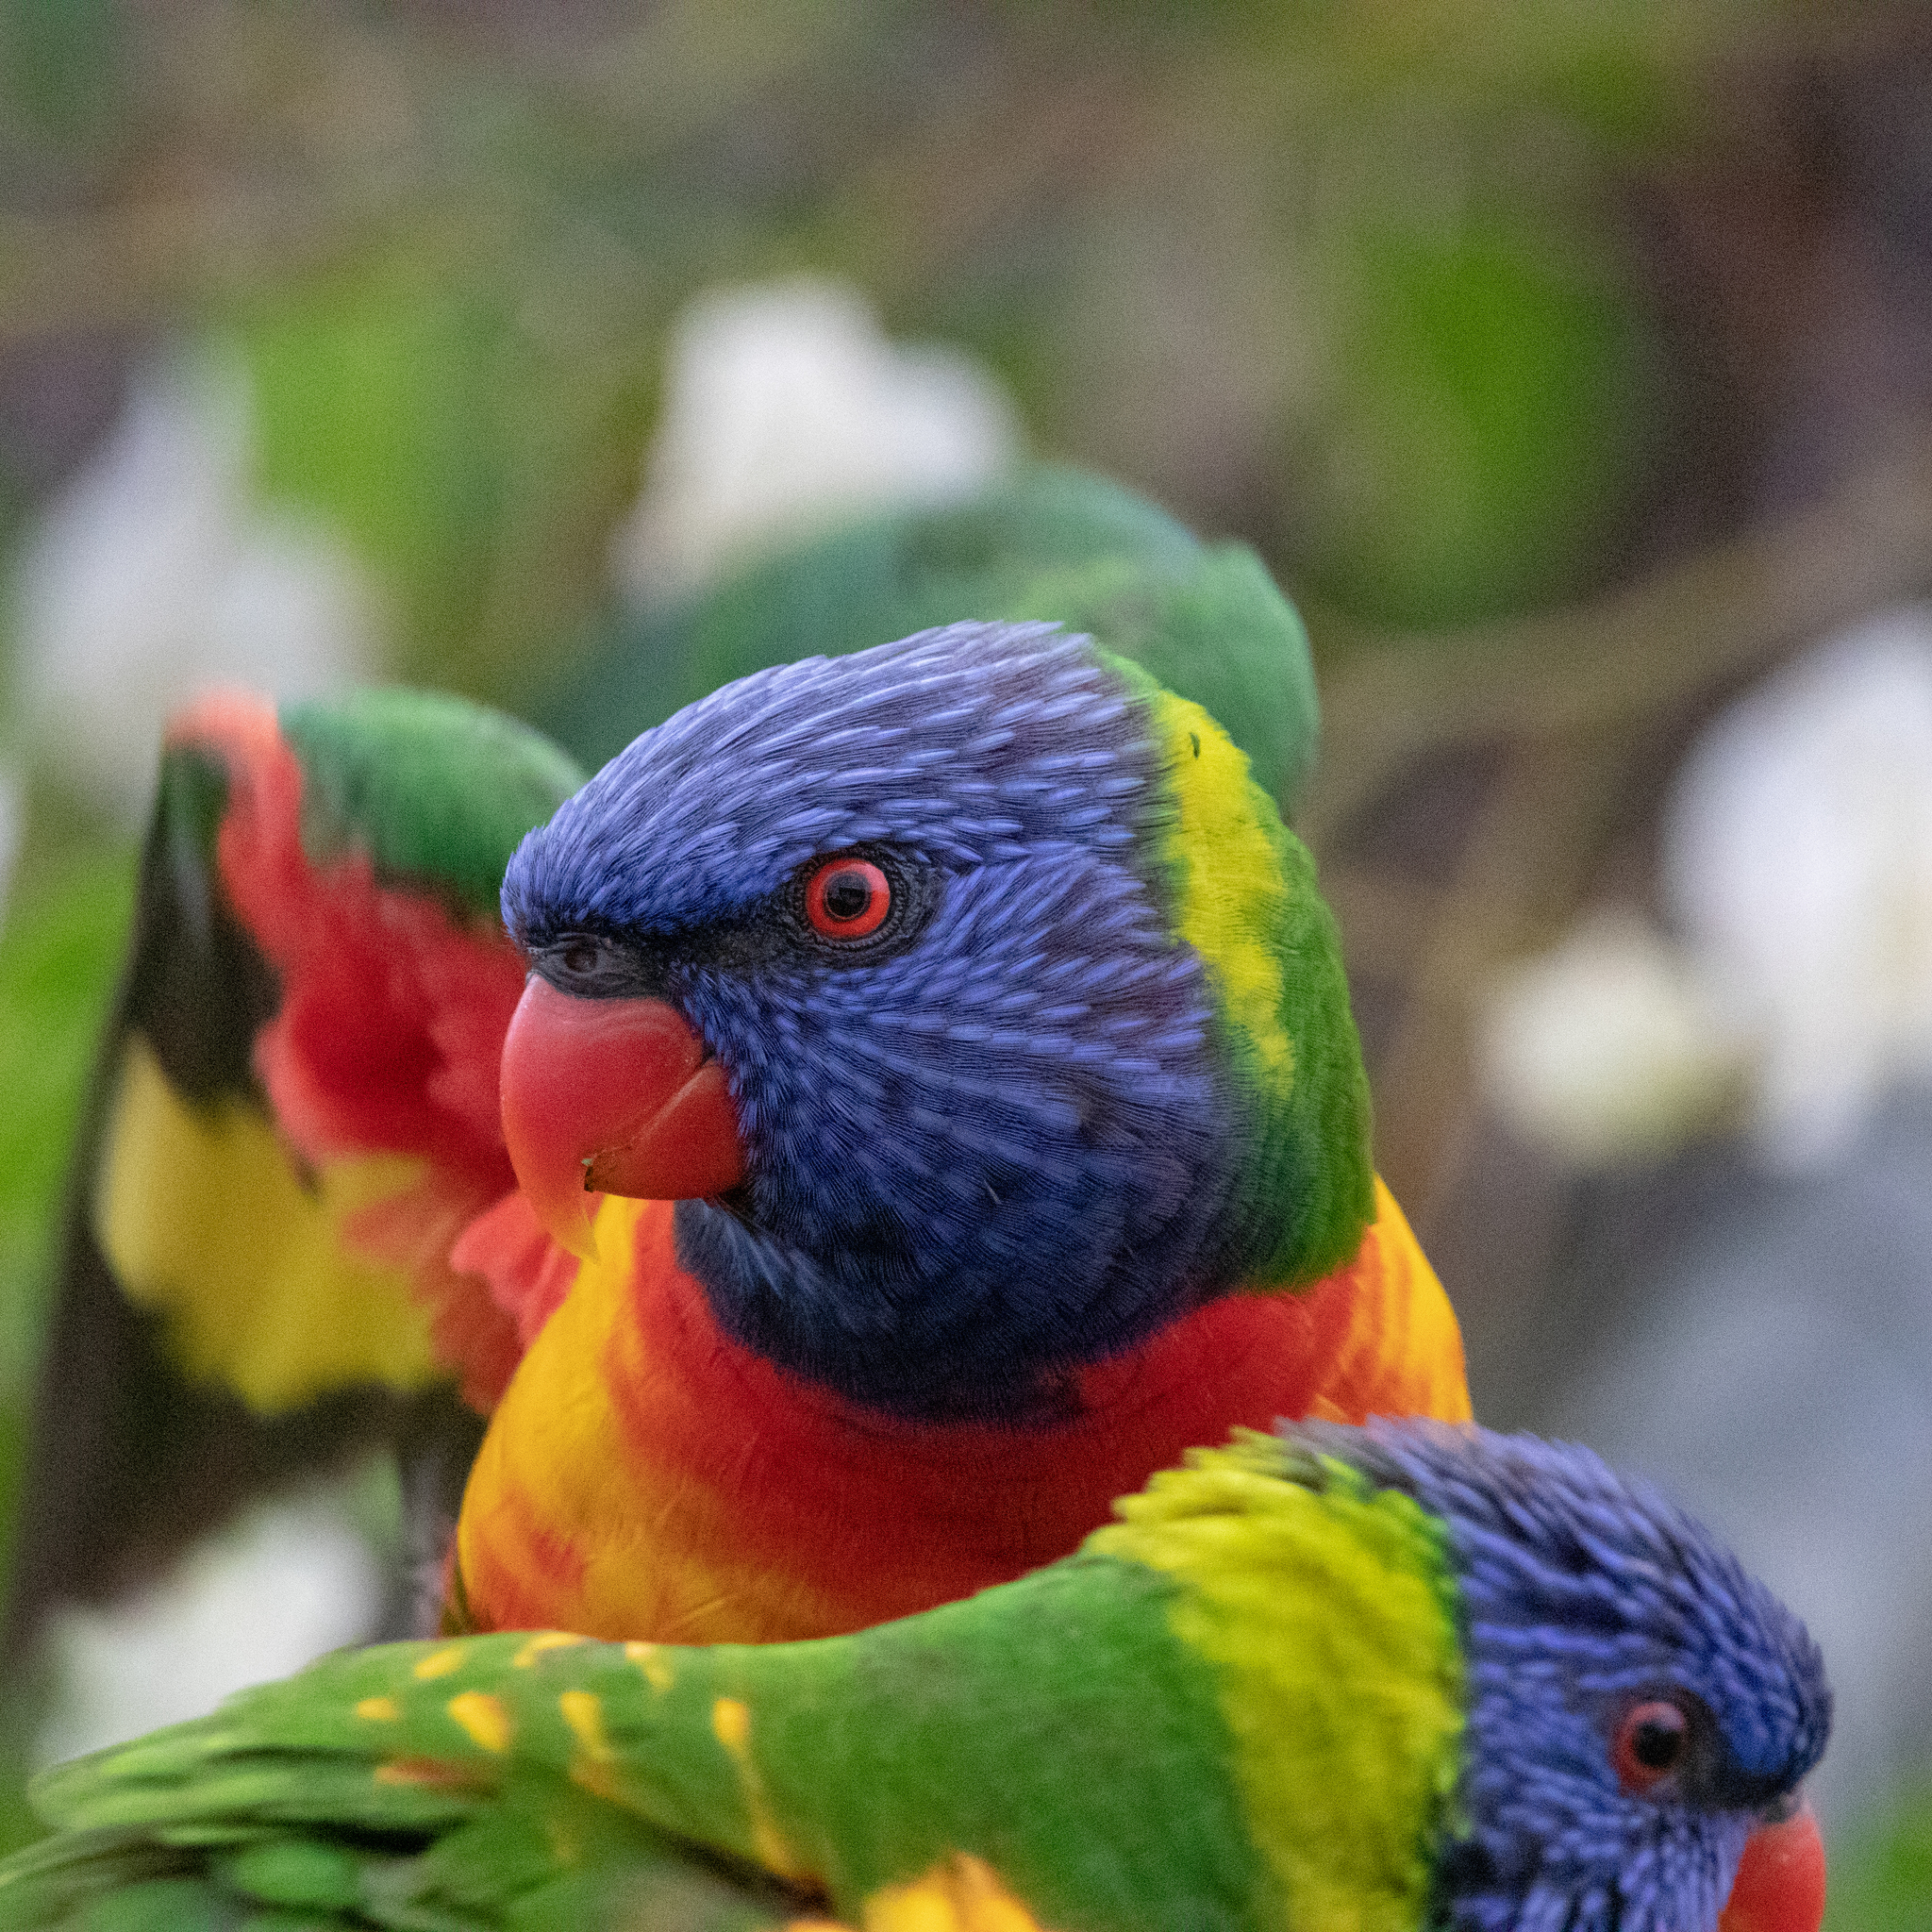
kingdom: Animalia
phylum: Chordata
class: Aves
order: Psittaciformes
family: Psittacidae
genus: Trichoglossus
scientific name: Trichoglossus haematodus
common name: Coconut lorikeet
